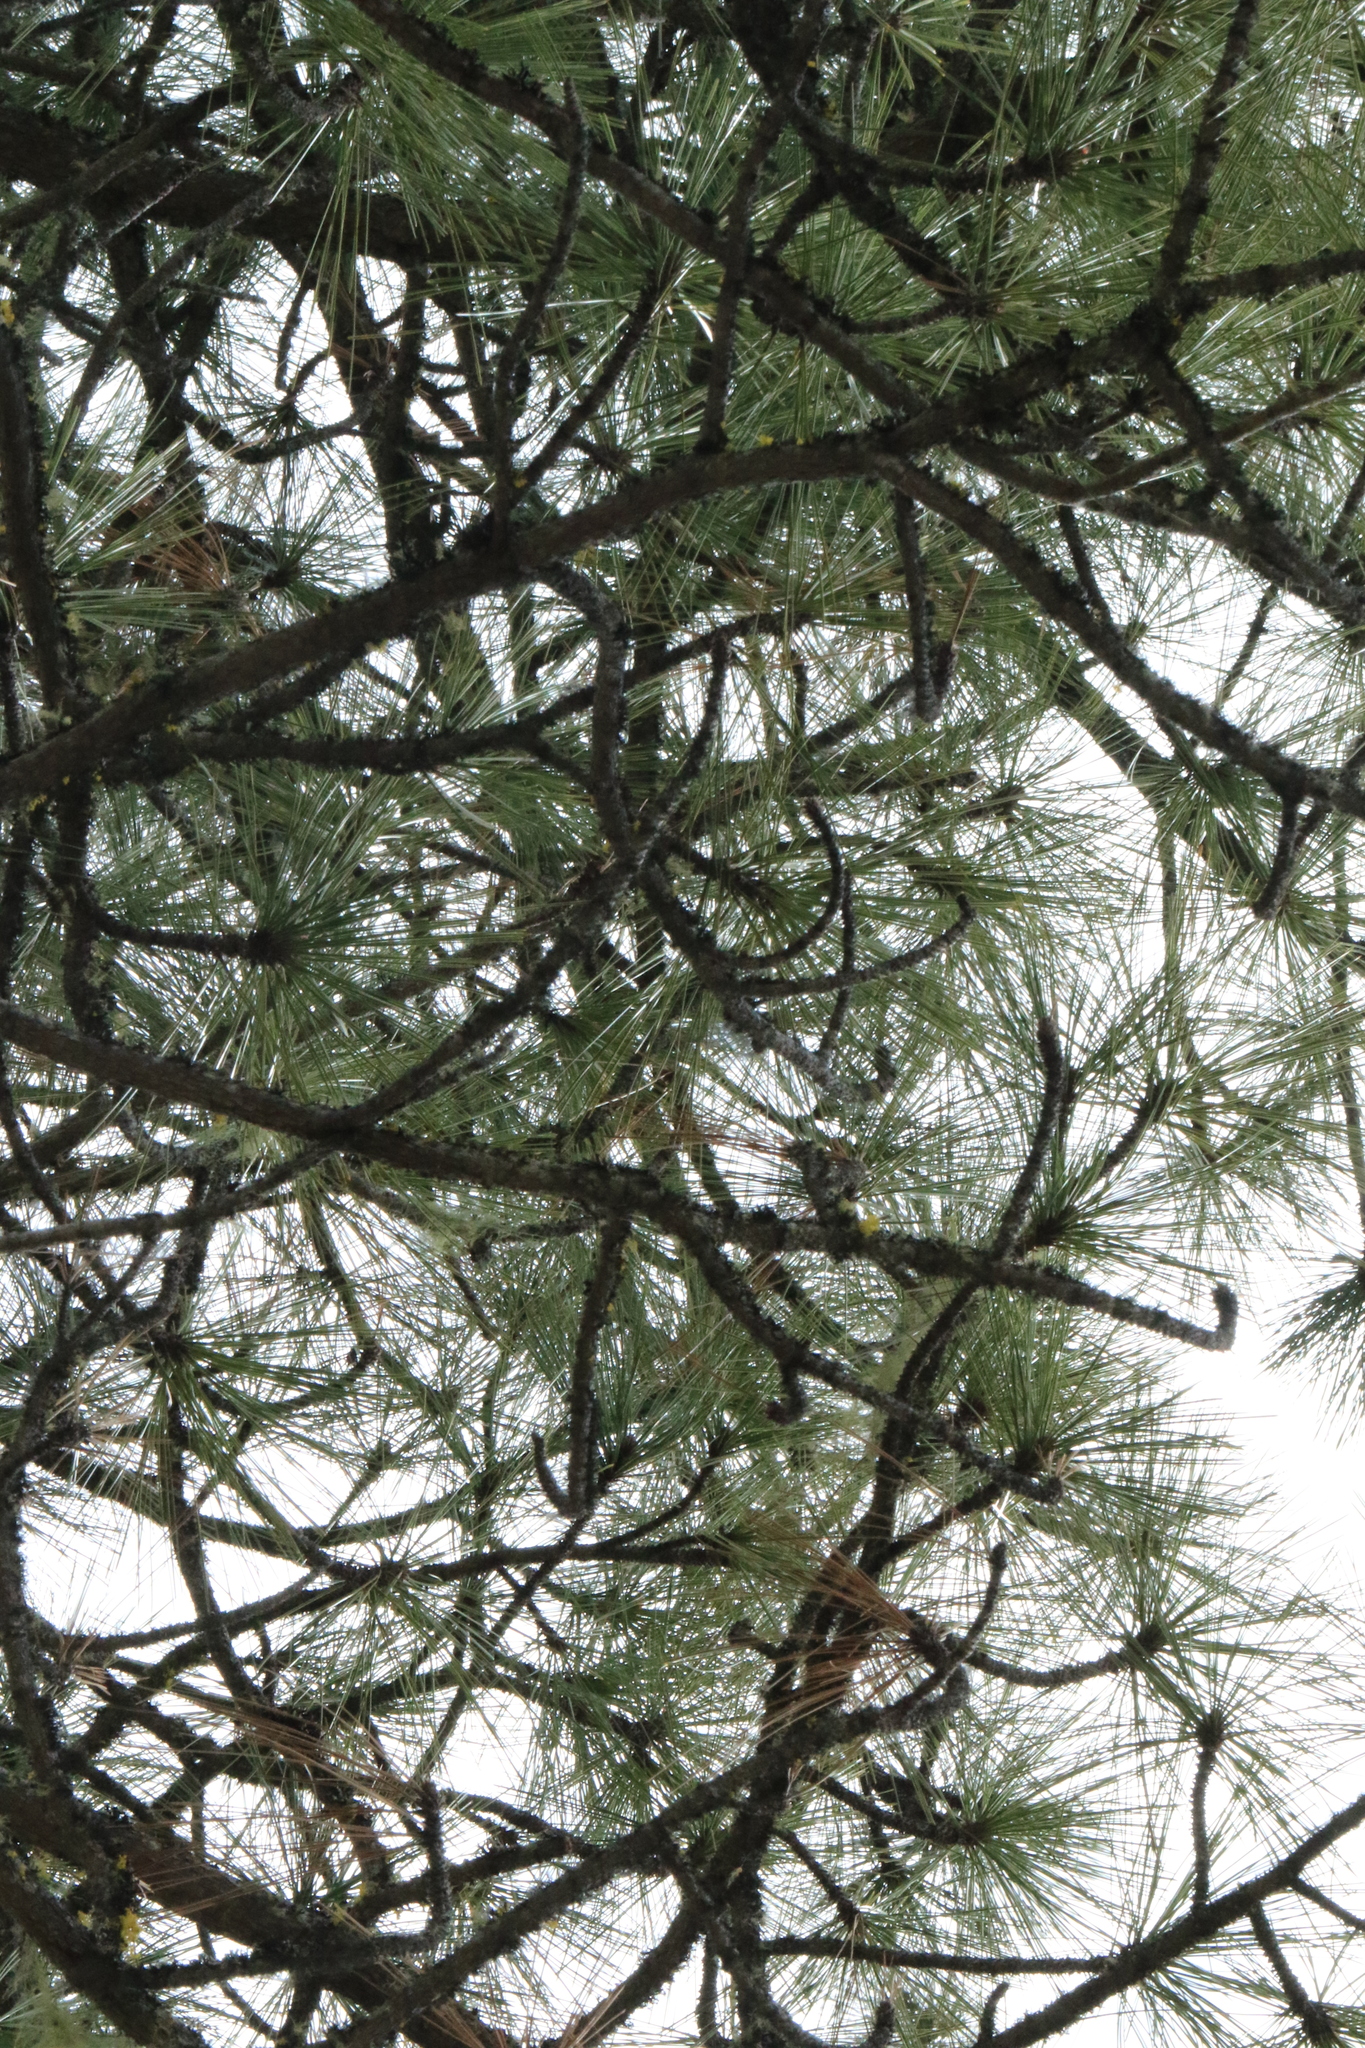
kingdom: Plantae
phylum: Tracheophyta
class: Pinopsida
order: Pinales
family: Pinaceae
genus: Pinus
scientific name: Pinus jeffreyi
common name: Jeffrey pine
